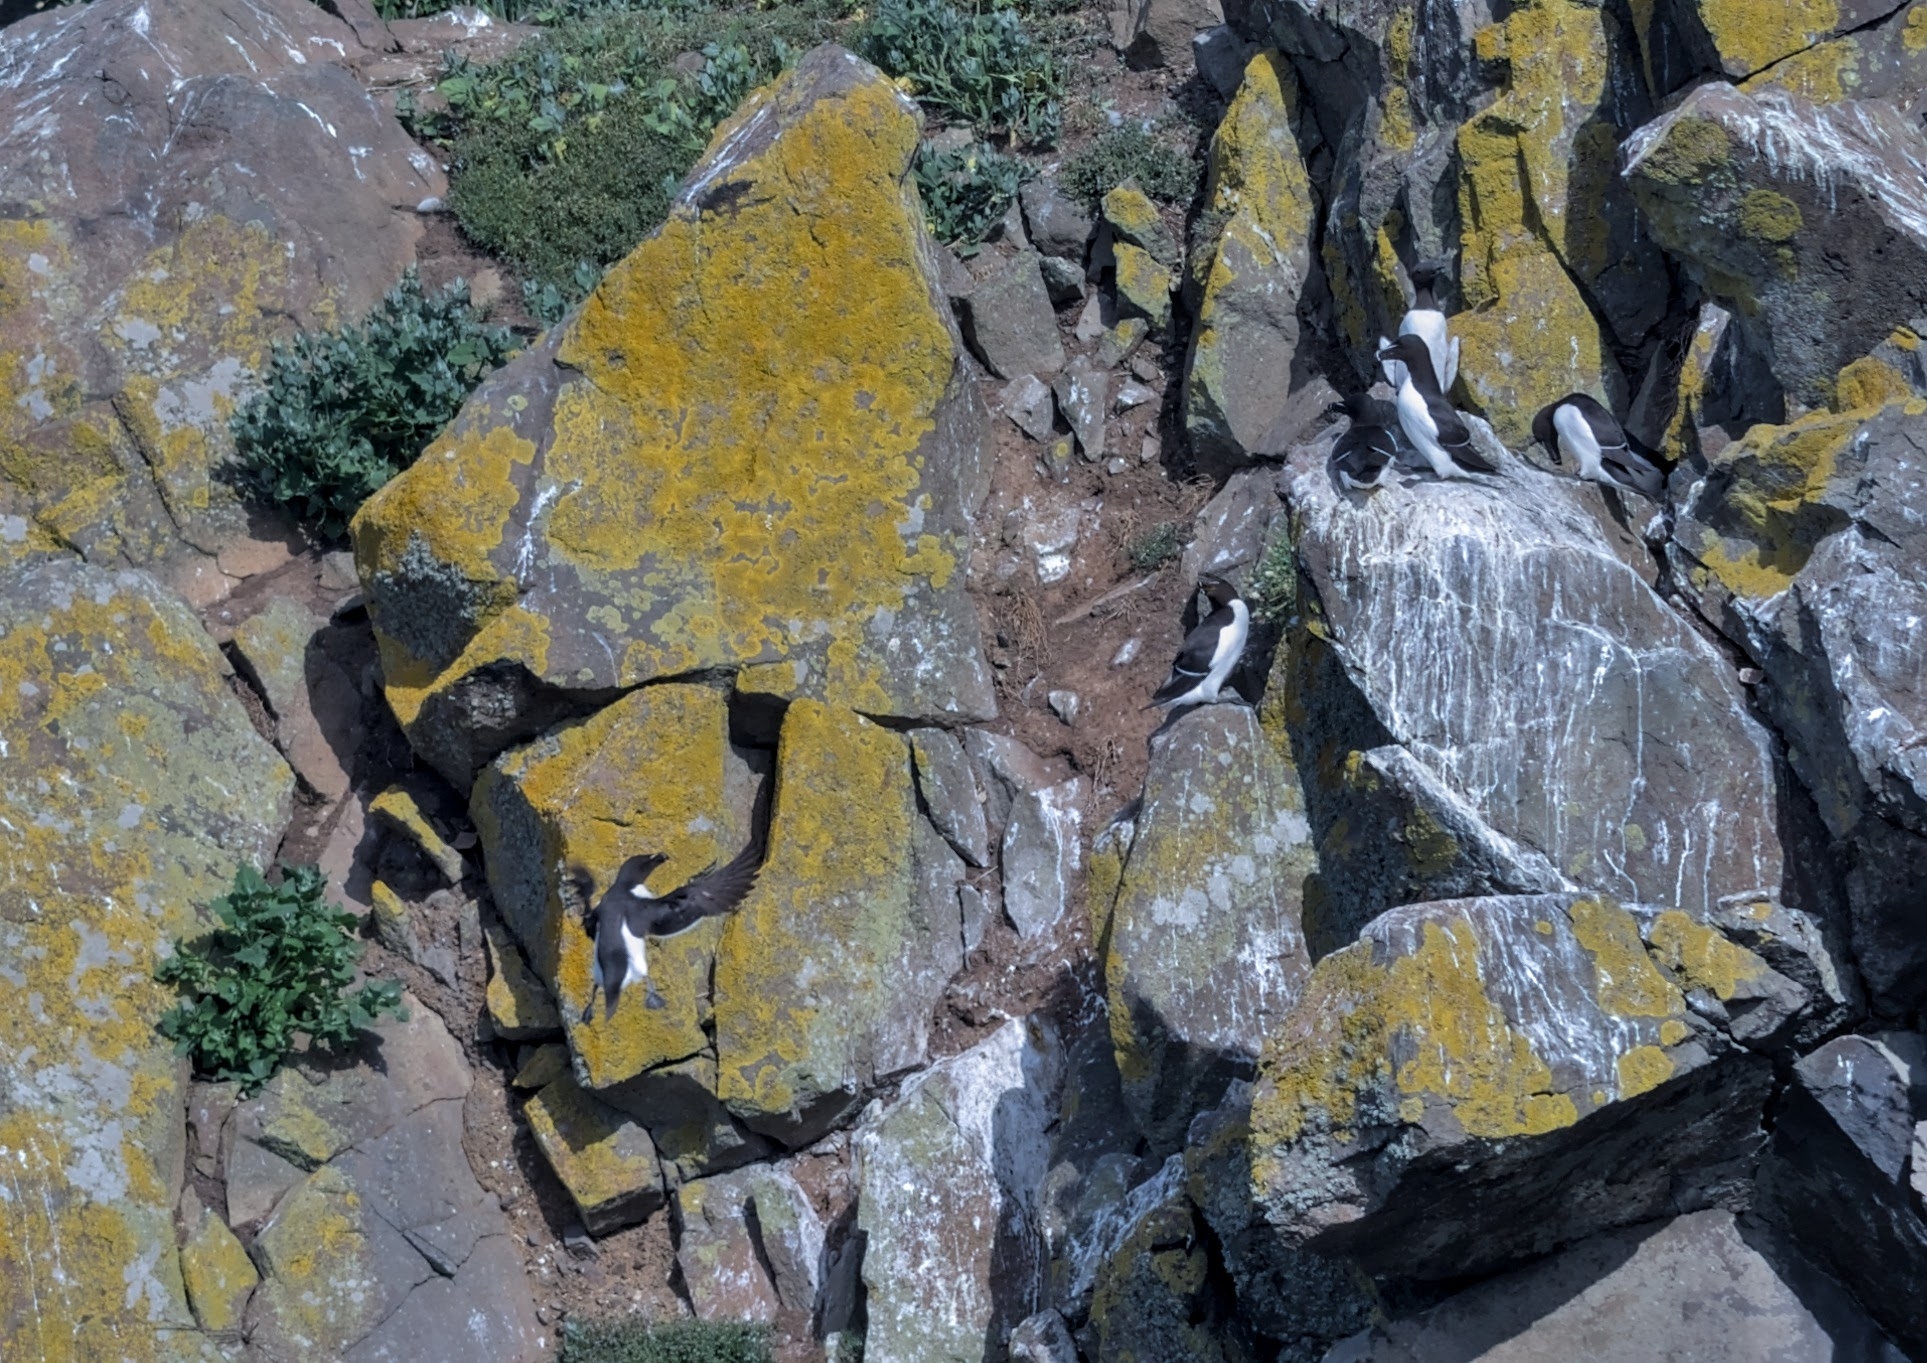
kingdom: Animalia
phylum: Chordata
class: Aves
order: Charadriiformes
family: Alcidae
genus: Alca
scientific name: Alca torda
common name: Razorbill
